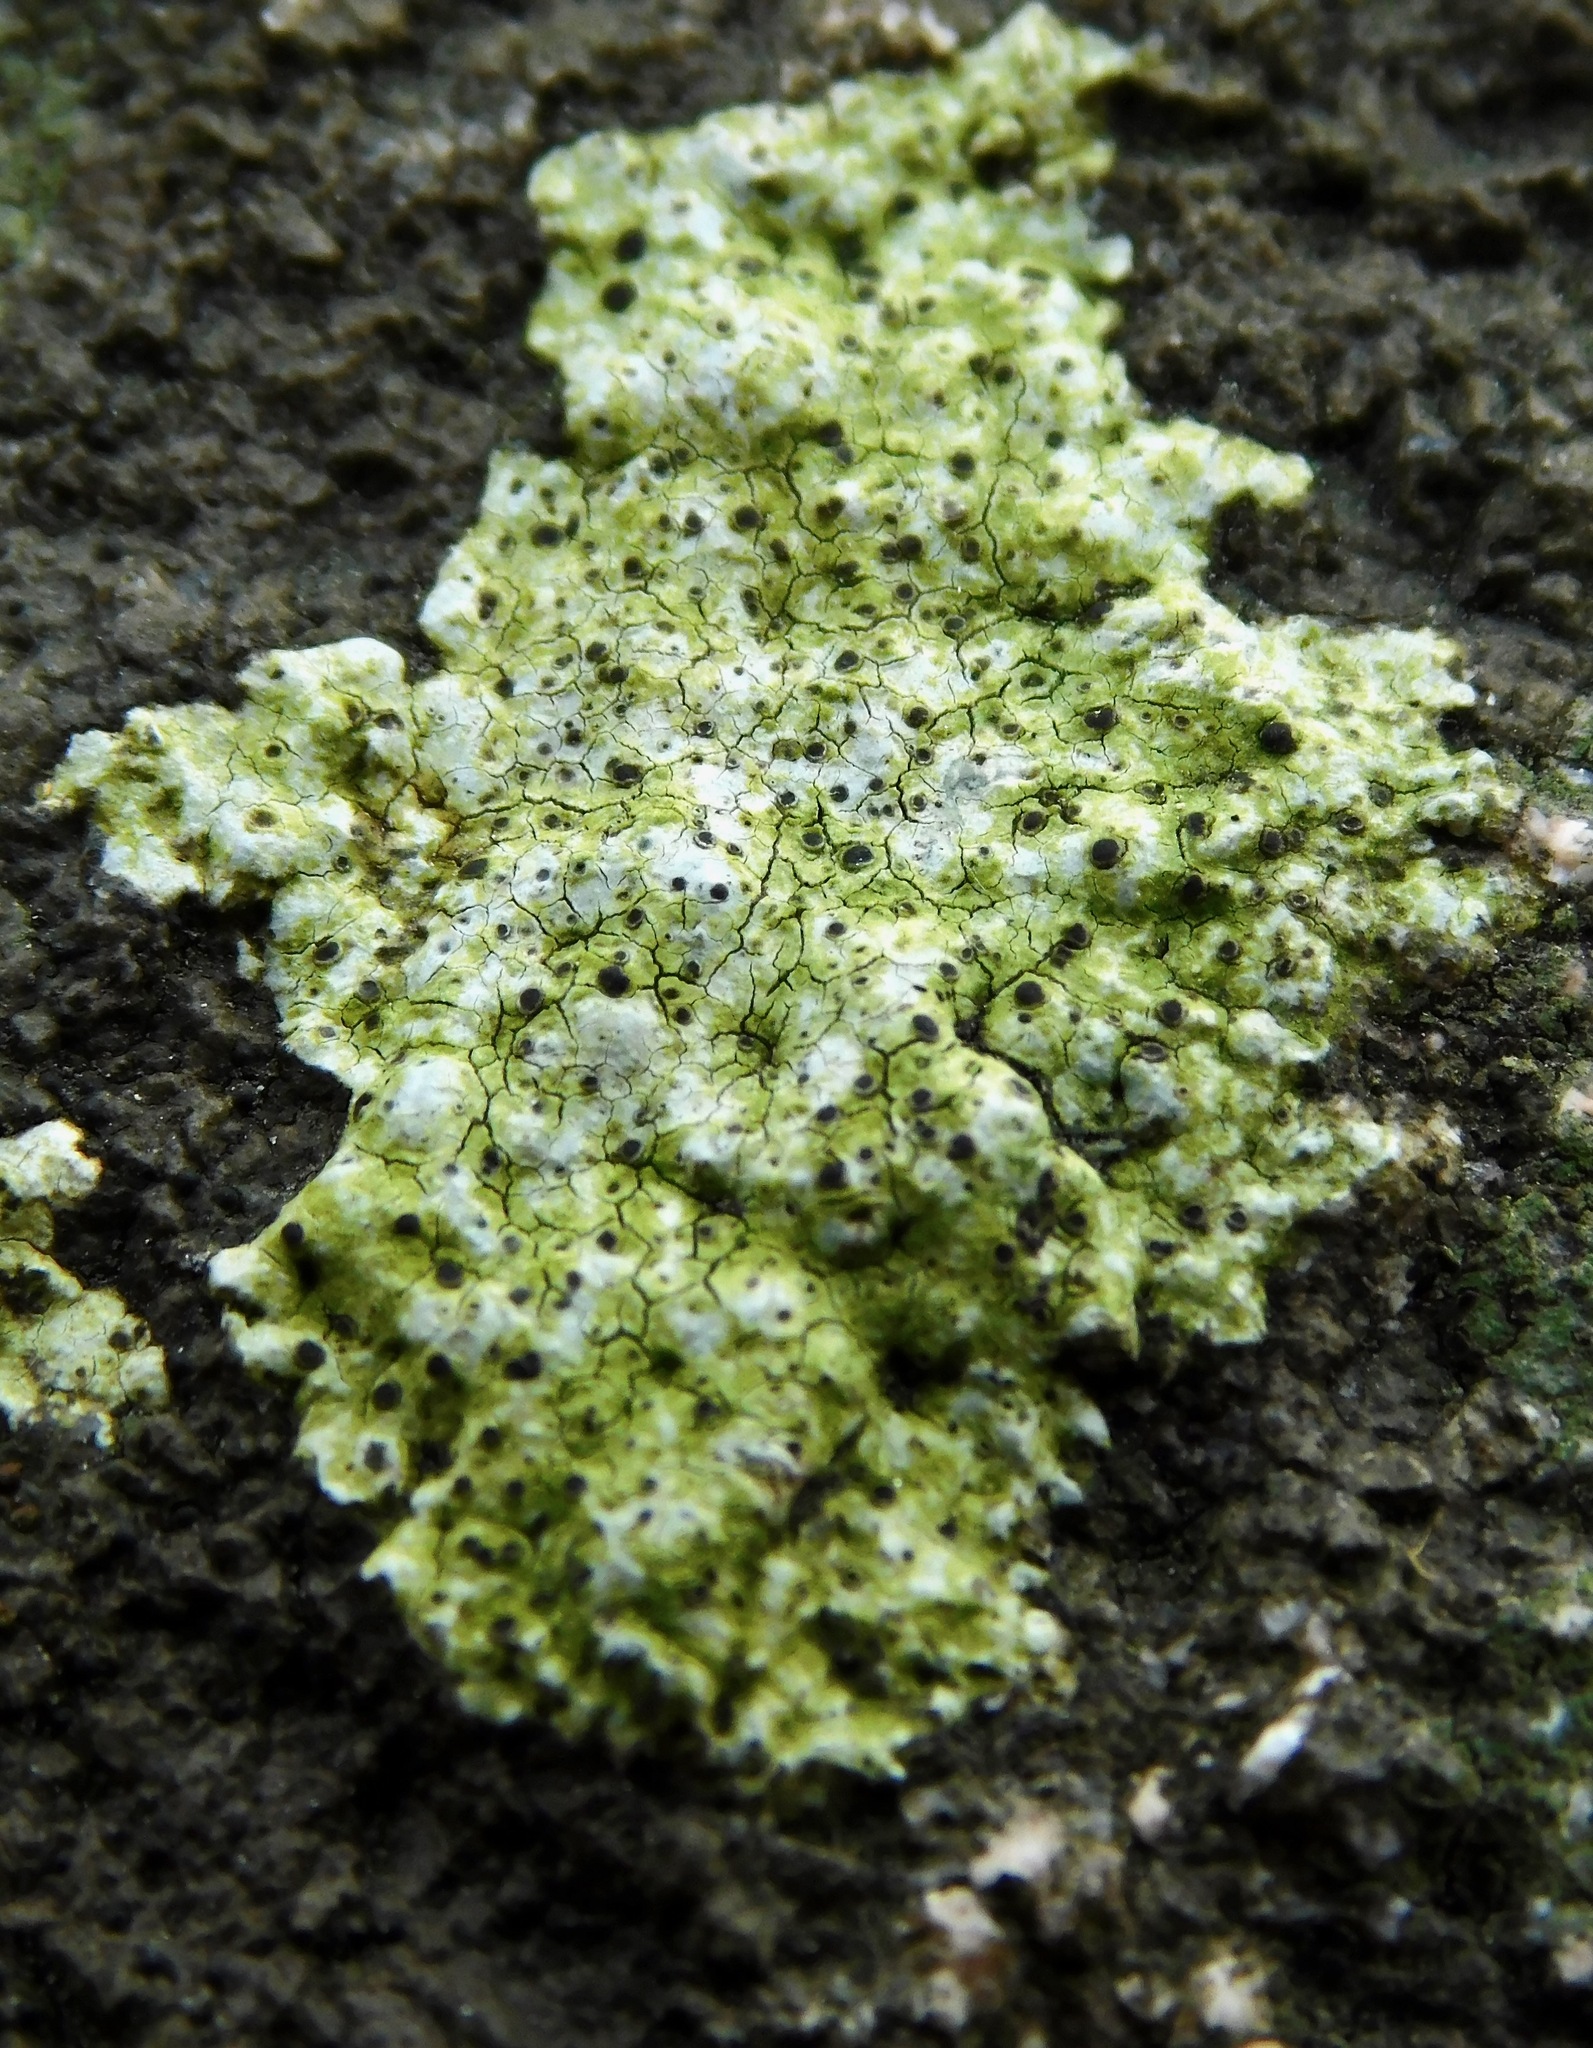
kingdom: Fungi
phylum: Ascomycota
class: Lecanoromycetes
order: Caliciales
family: Caliciaceae
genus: Buellia
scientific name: Buellia mamillana
